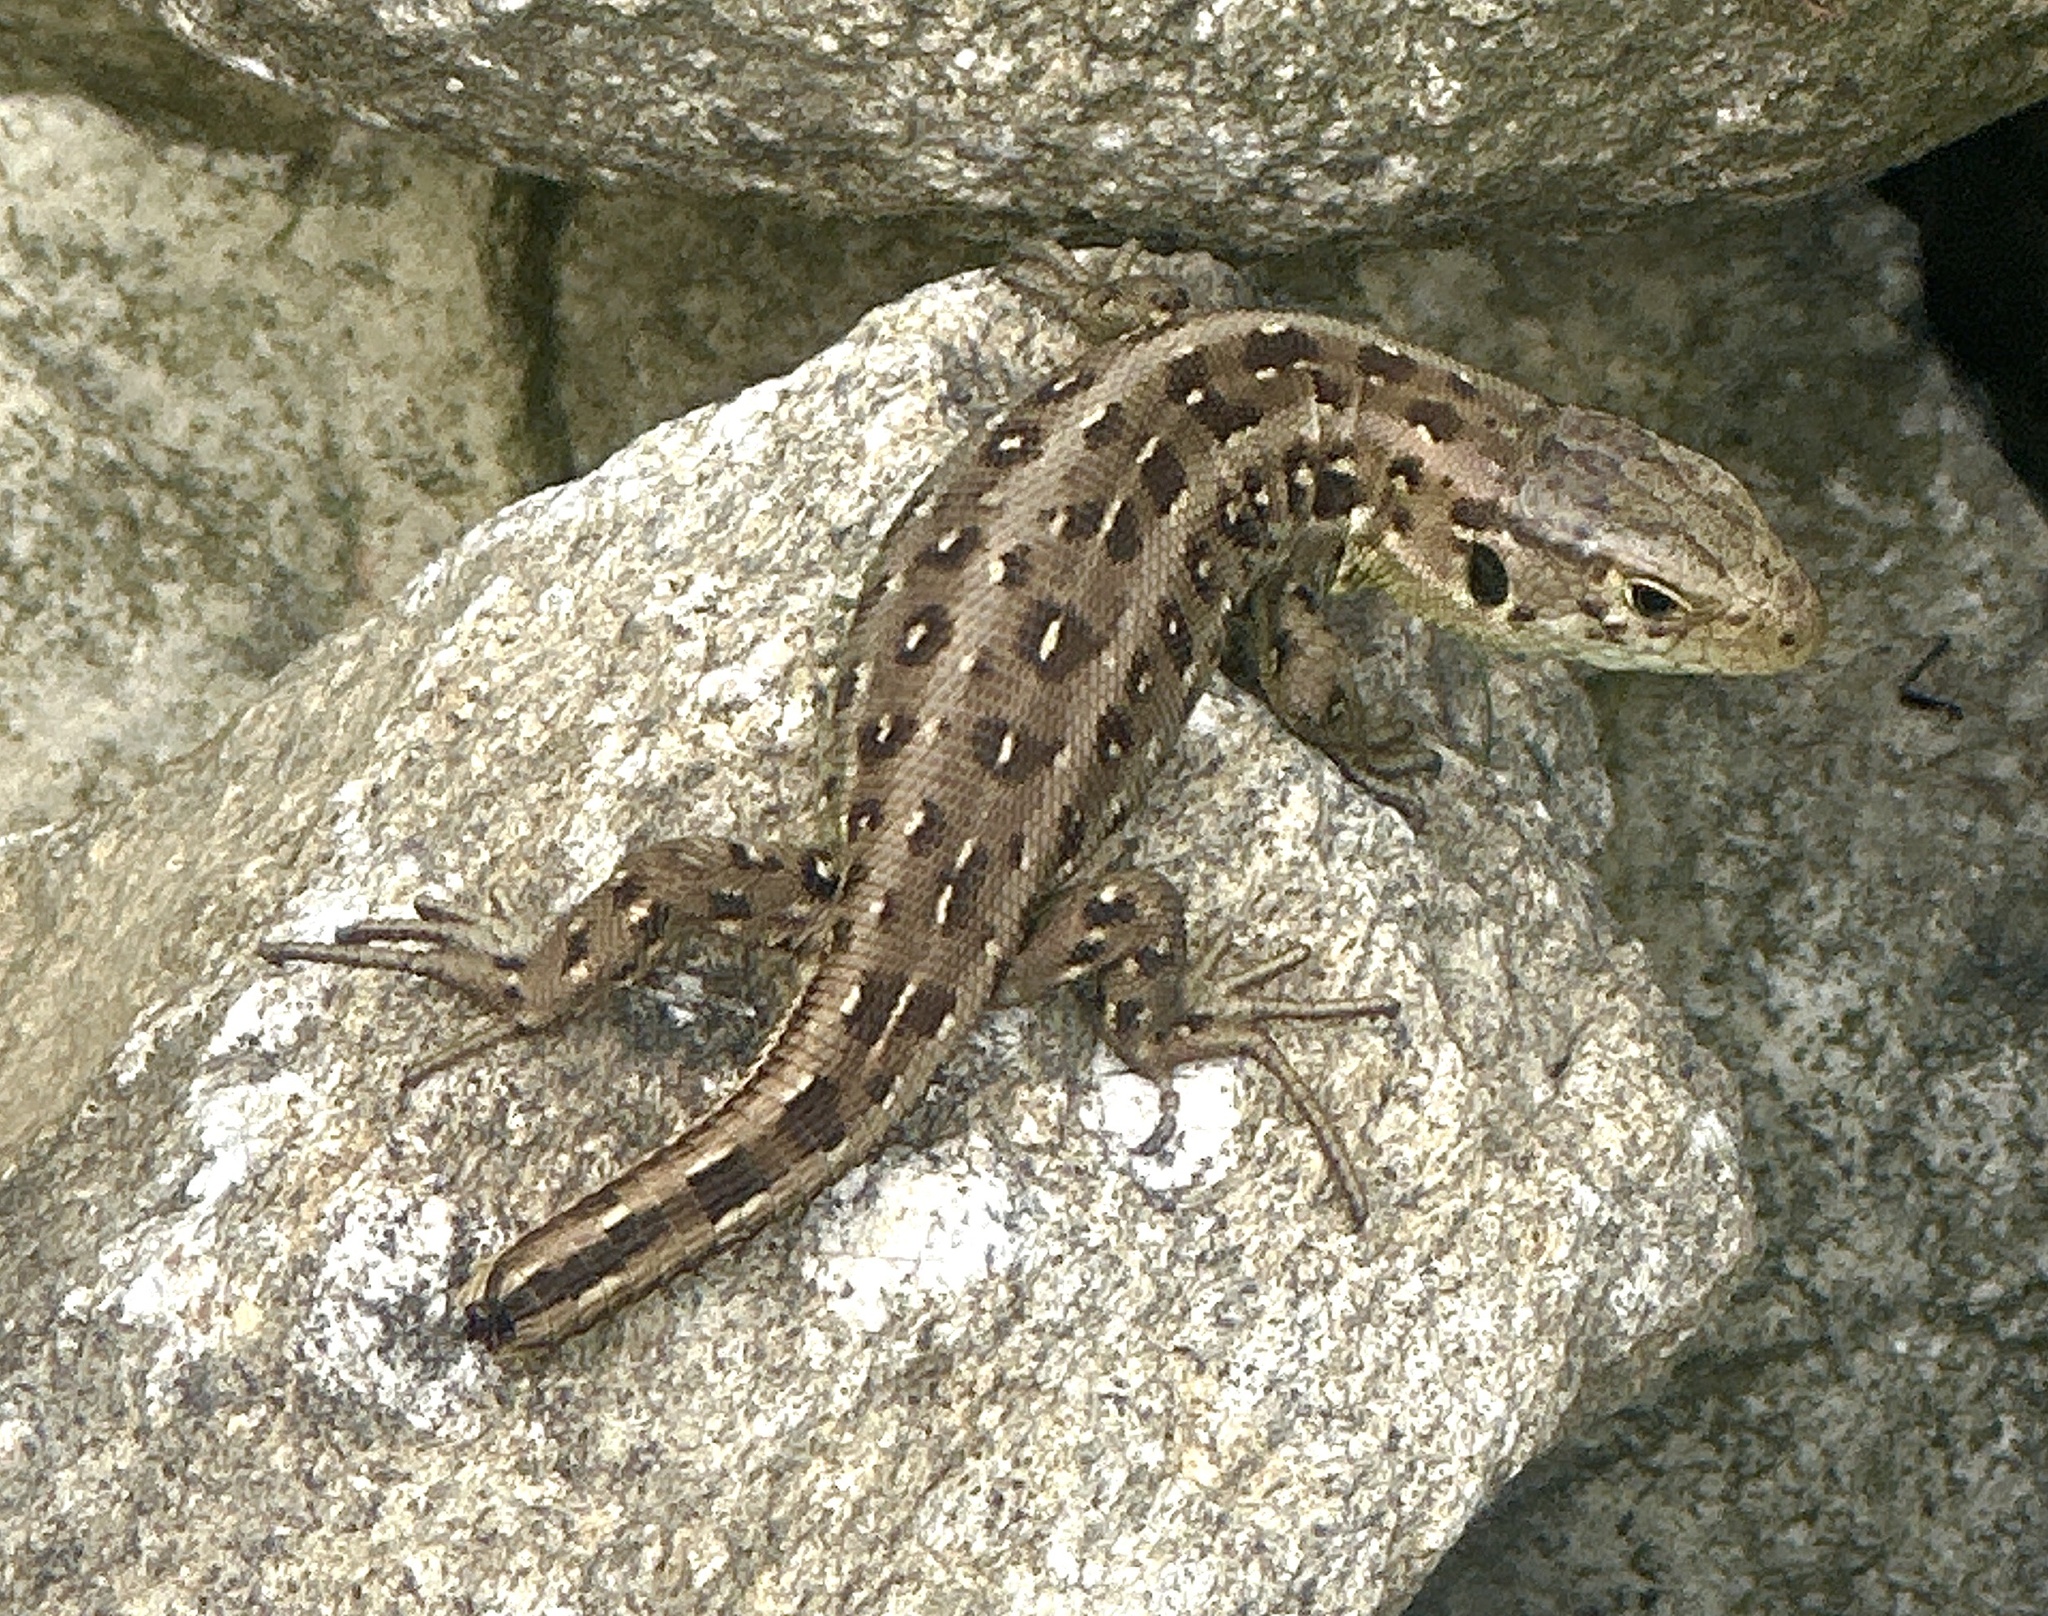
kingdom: Animalia
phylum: Chordata
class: Squamata
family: Lacertidae
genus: Lacerta
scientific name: Lacerta agilis
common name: Sand lizard
